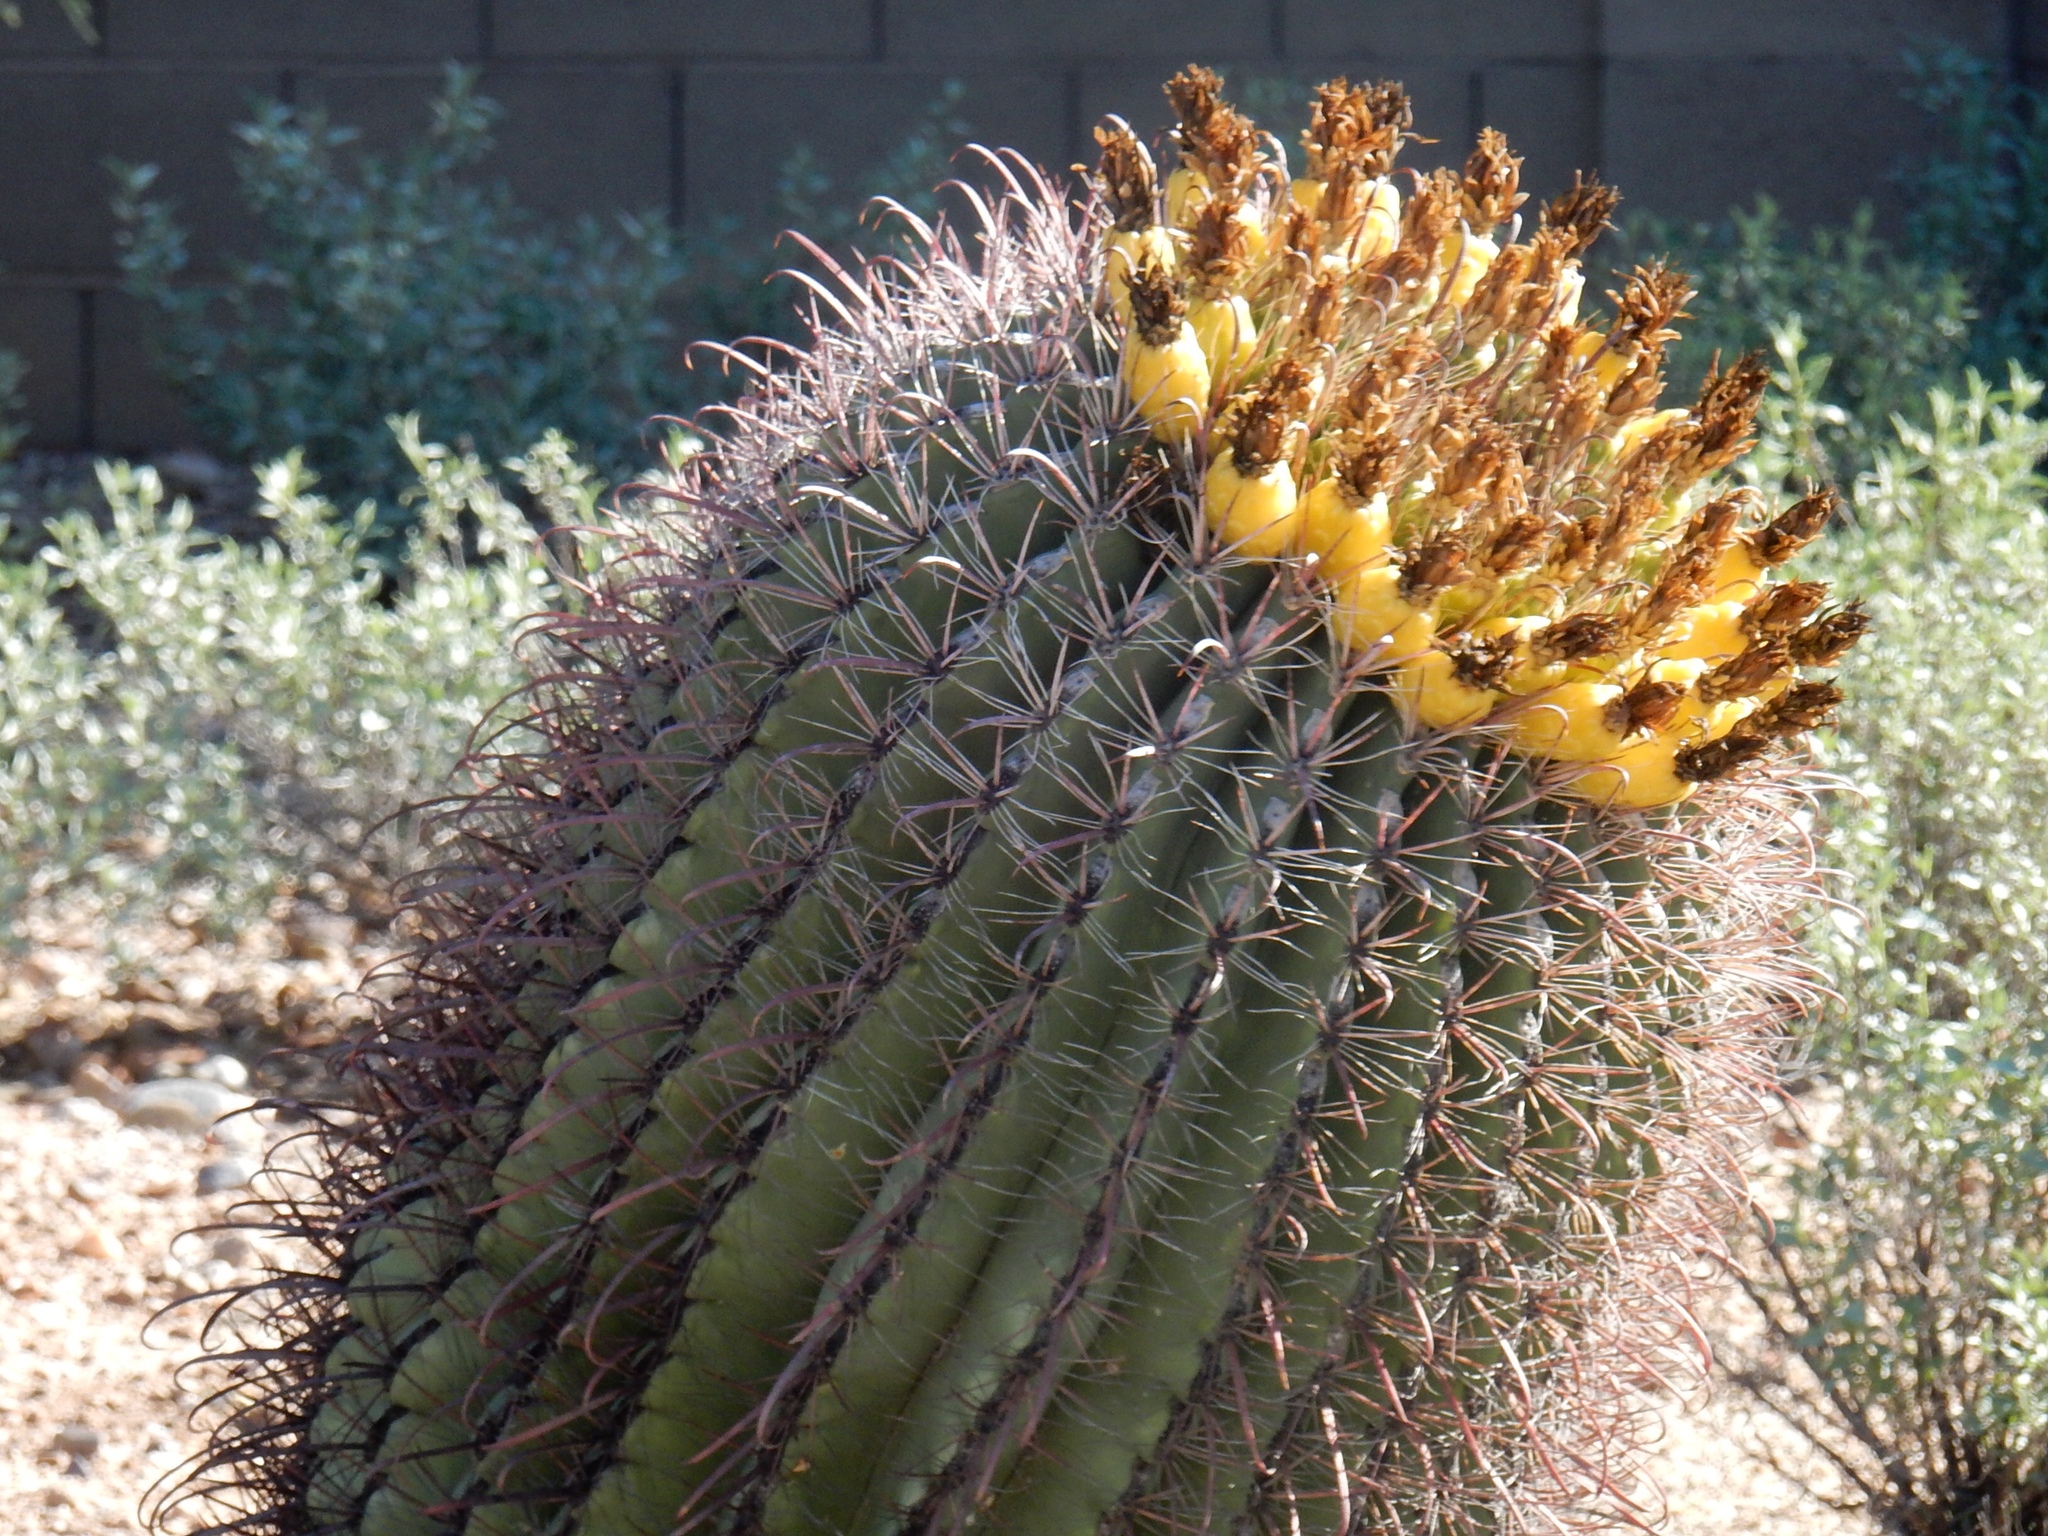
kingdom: Plantae
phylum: Tracheophyta
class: Magnoliopsida
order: Caryophyllales
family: Cactaceae
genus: Ferocactus
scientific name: Ferocactus wislizeni
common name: Candy barrel cactus
